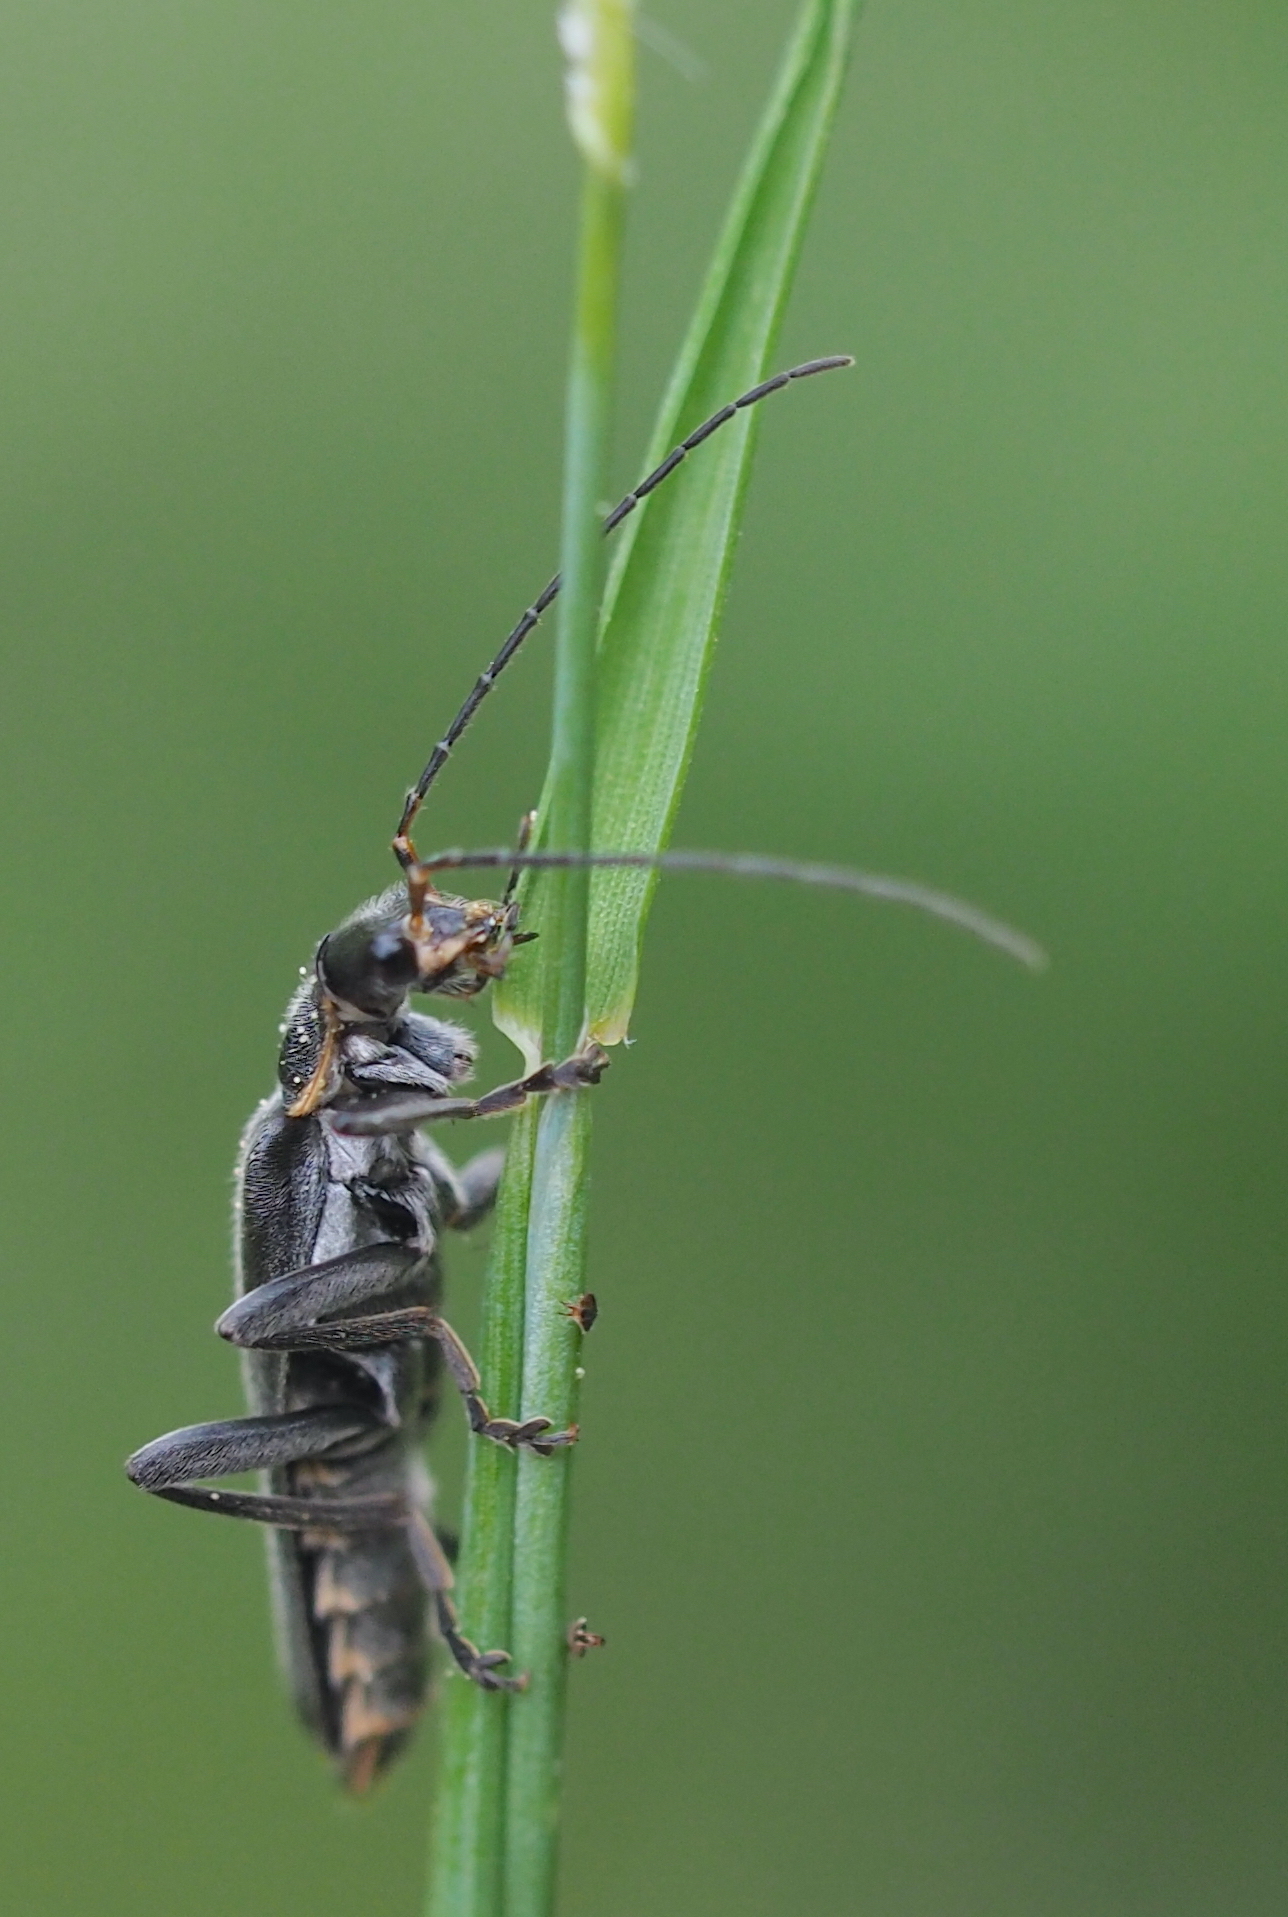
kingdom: Animalia
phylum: Arthropoda
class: Insecta
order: Coleoptera
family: Cantharidae
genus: Cantharis
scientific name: Cantharis obscura
